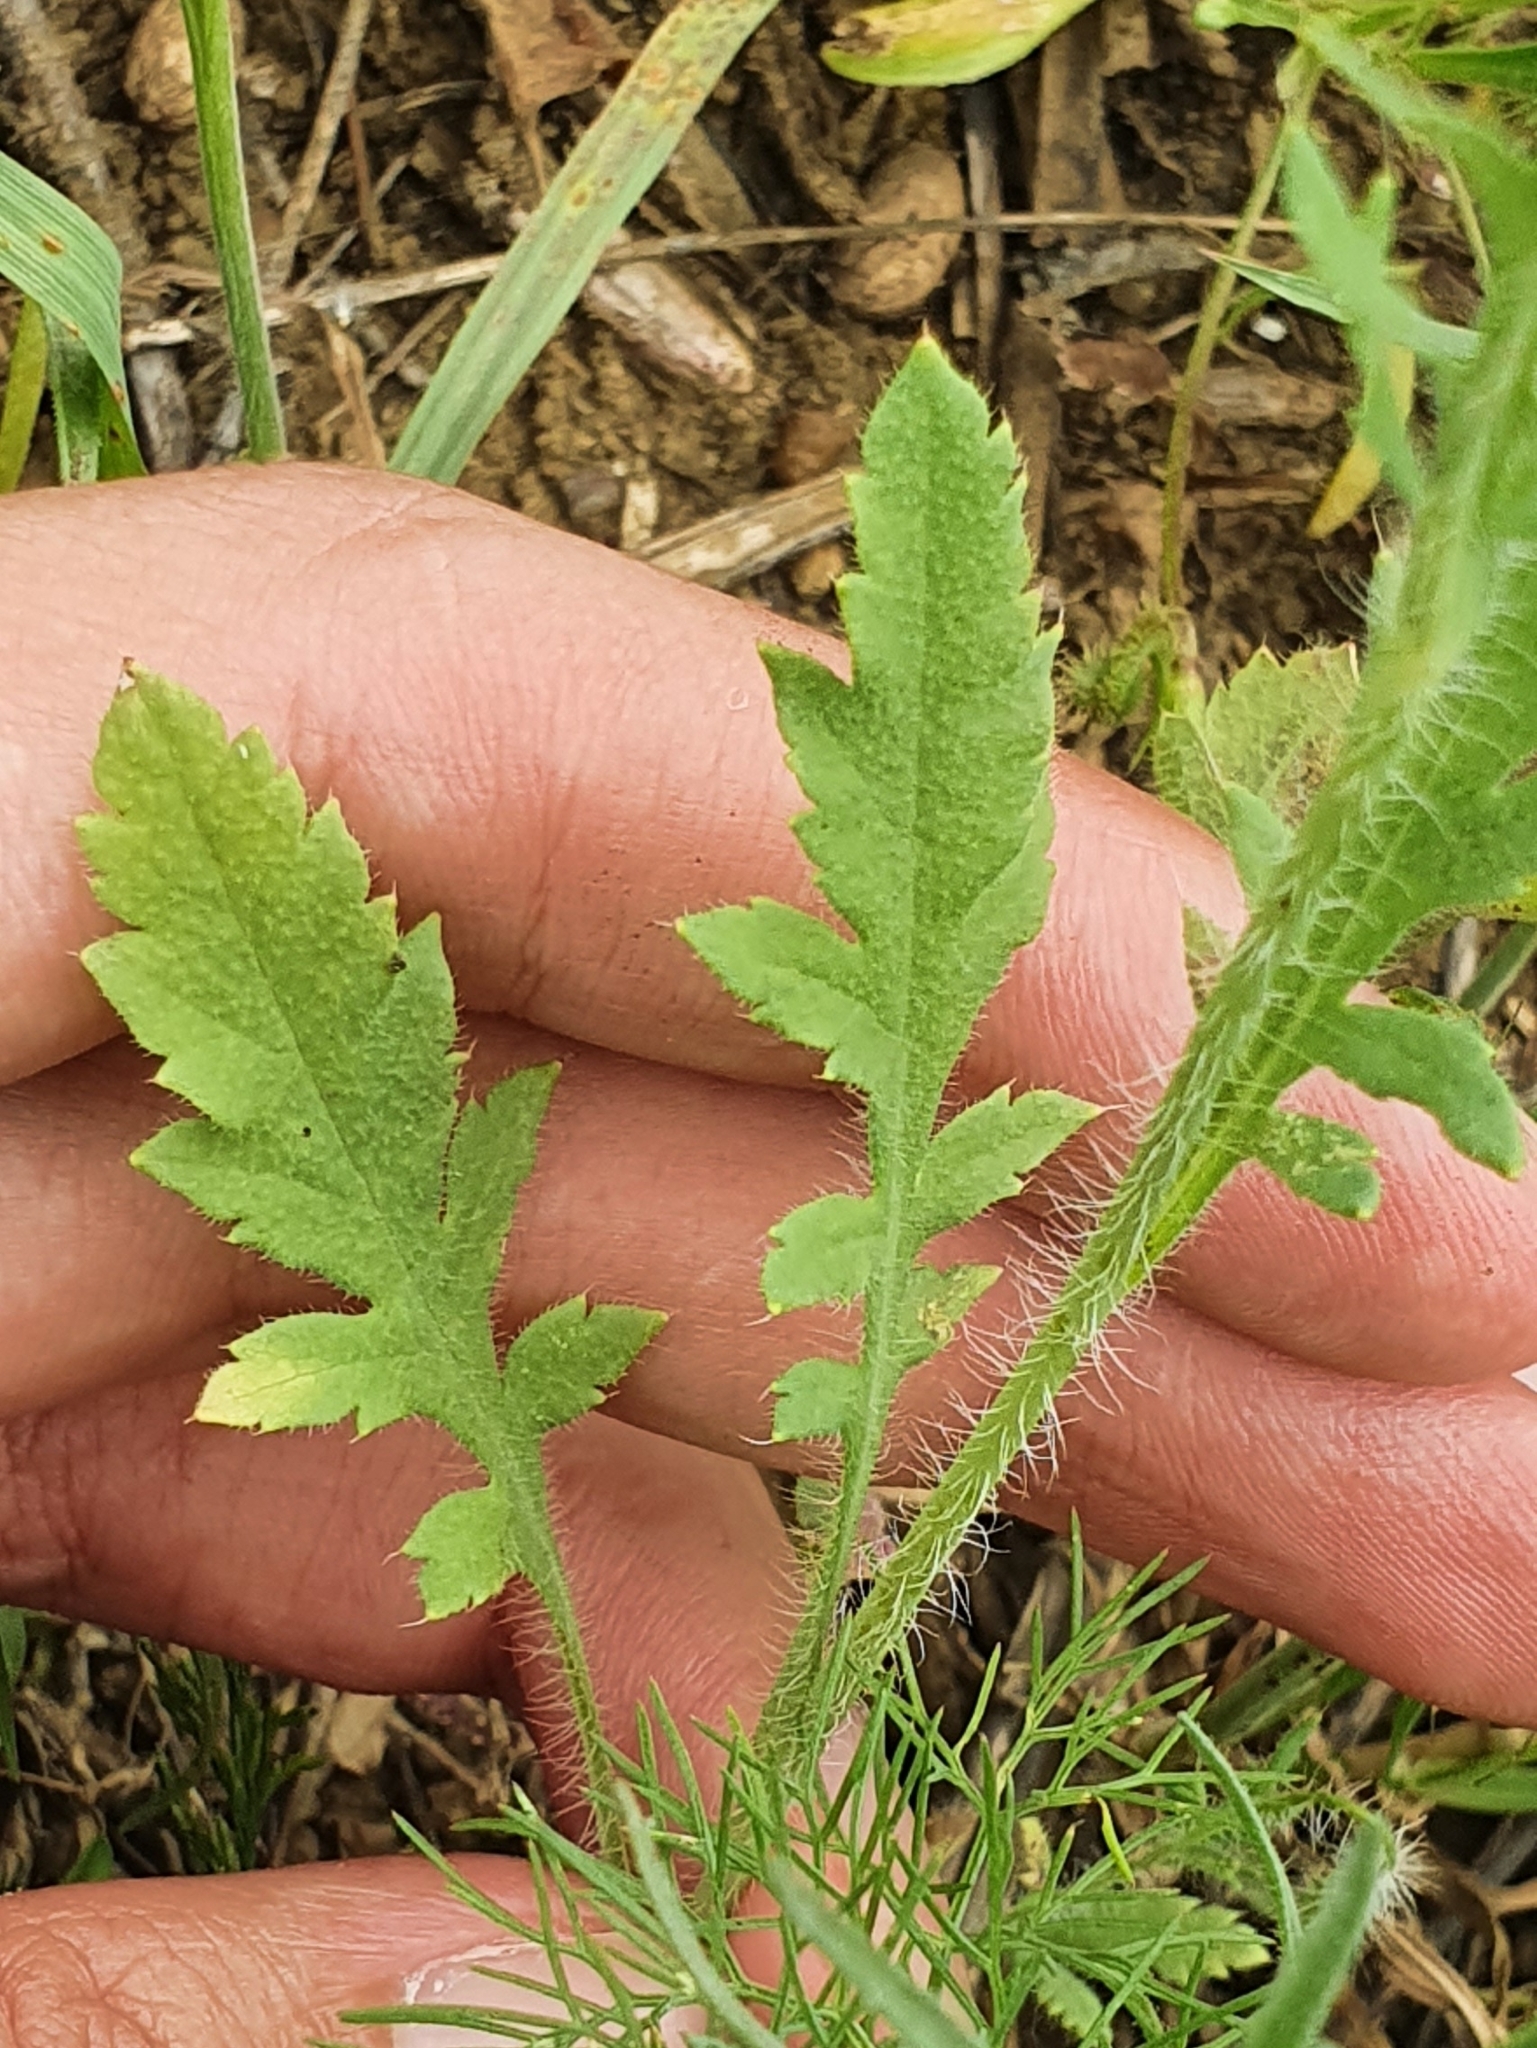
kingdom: Plantae
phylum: Tracheophyta
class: Magnoliopsida
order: Ranunculales
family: Papaveraceae
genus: Papaver
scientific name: Papaver rhoeas
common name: Corn poppy
